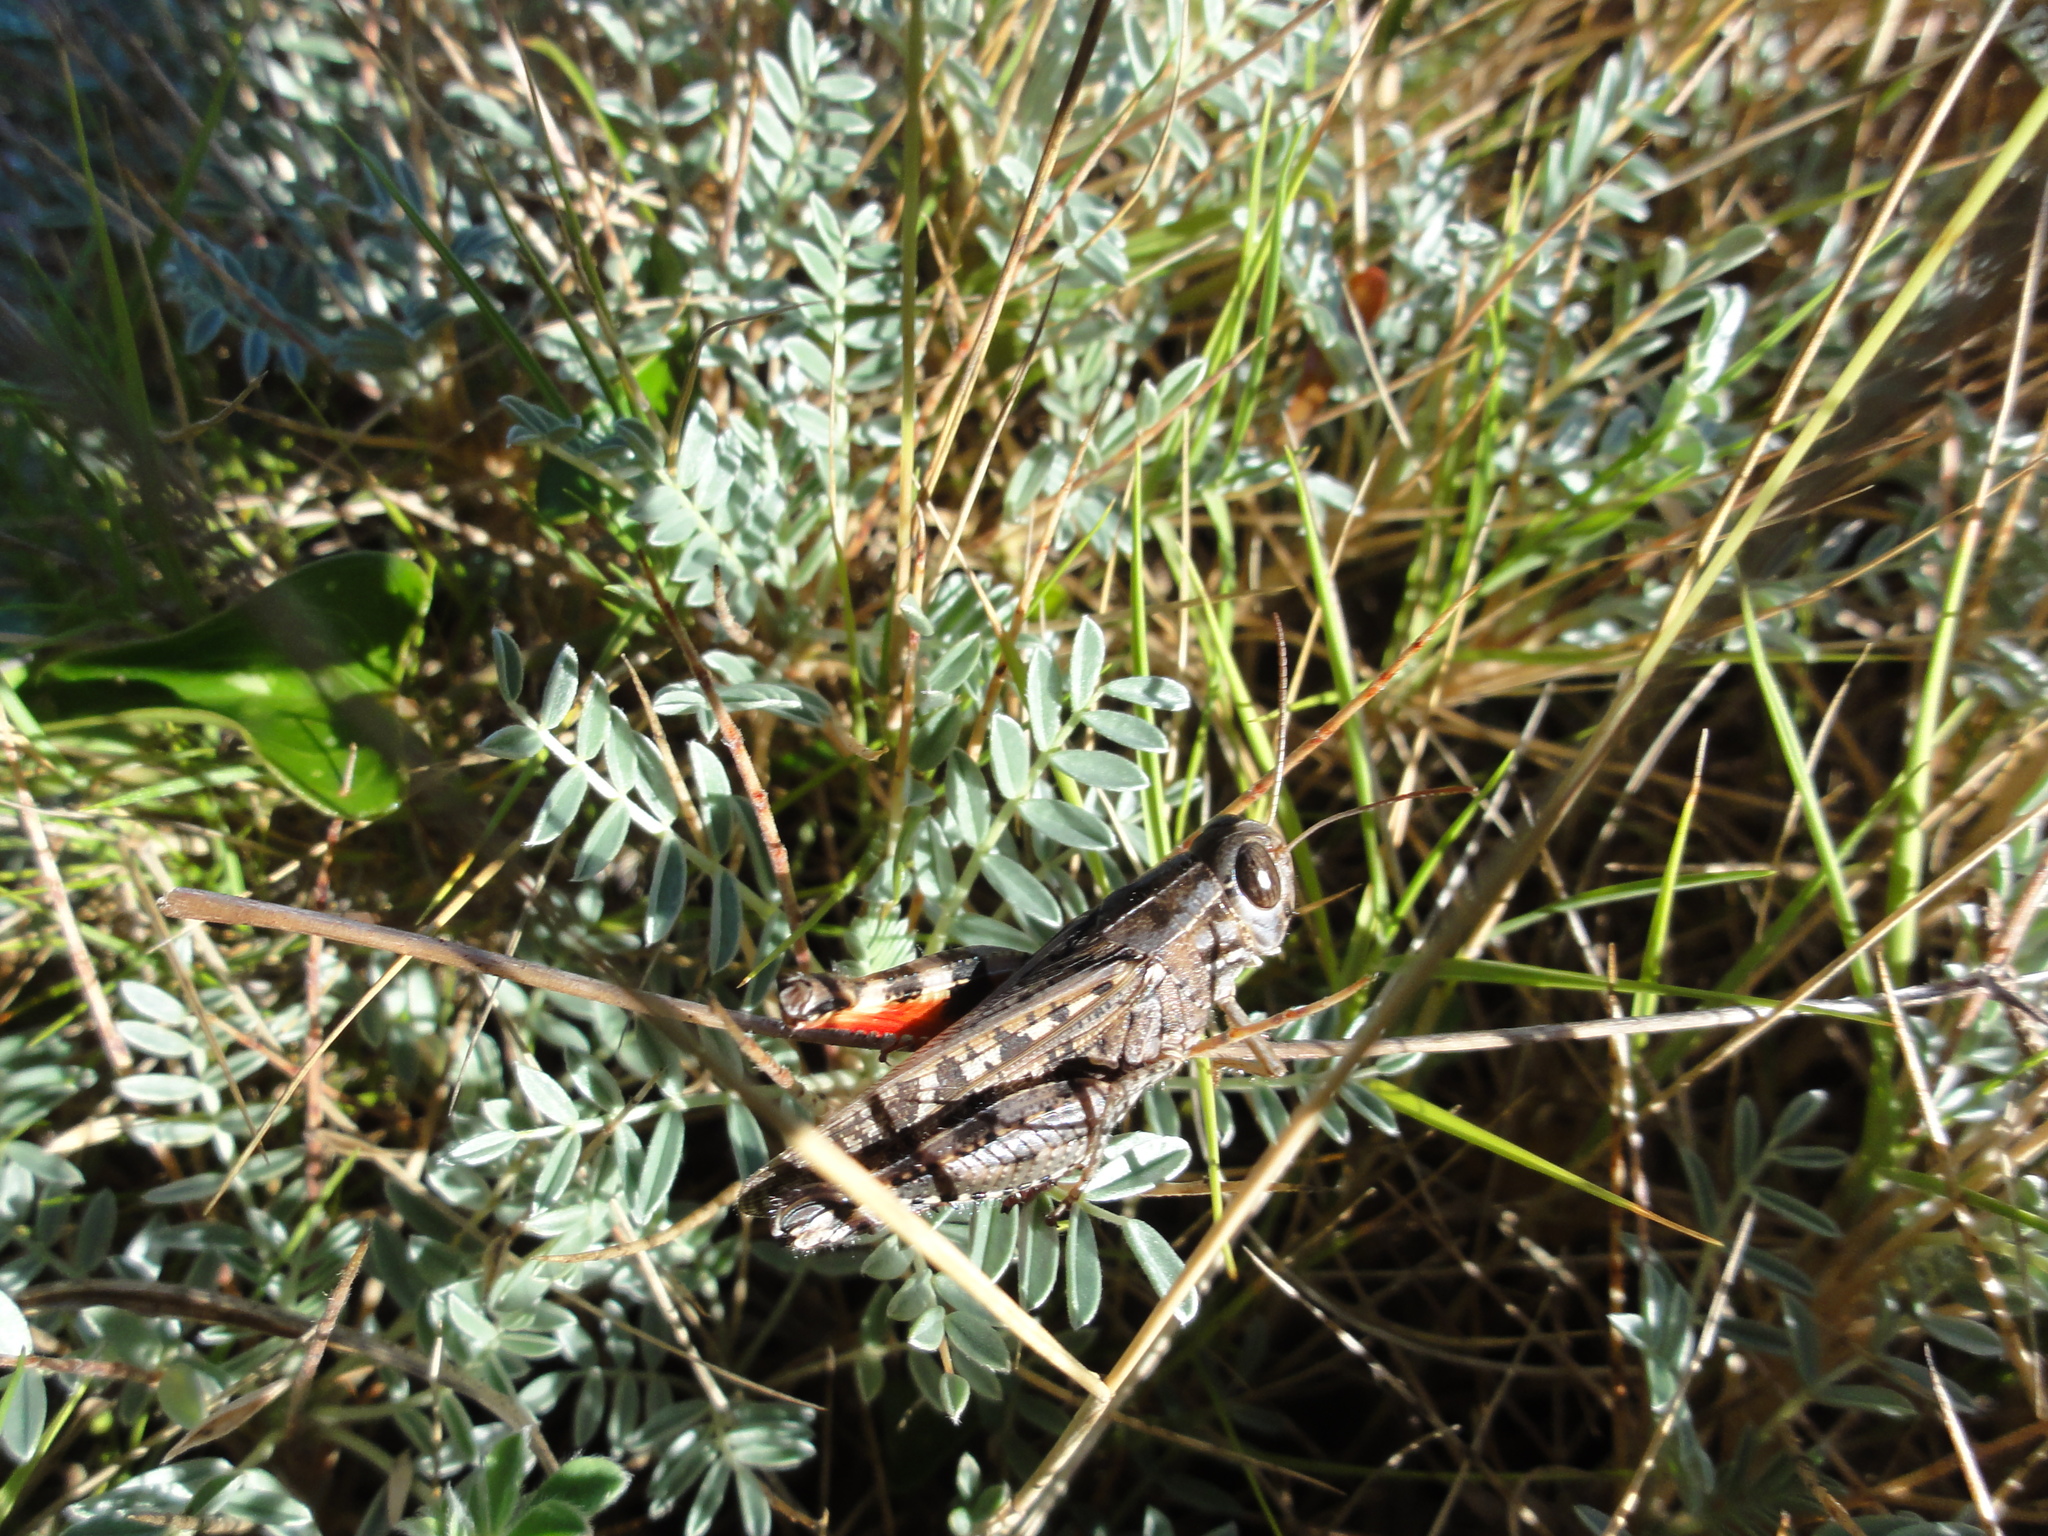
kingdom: Animalia
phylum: Arthropoda
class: Insecta
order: Orthoptera
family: Acrididae
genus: Calliptamus
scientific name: Calliptamus barbarus
